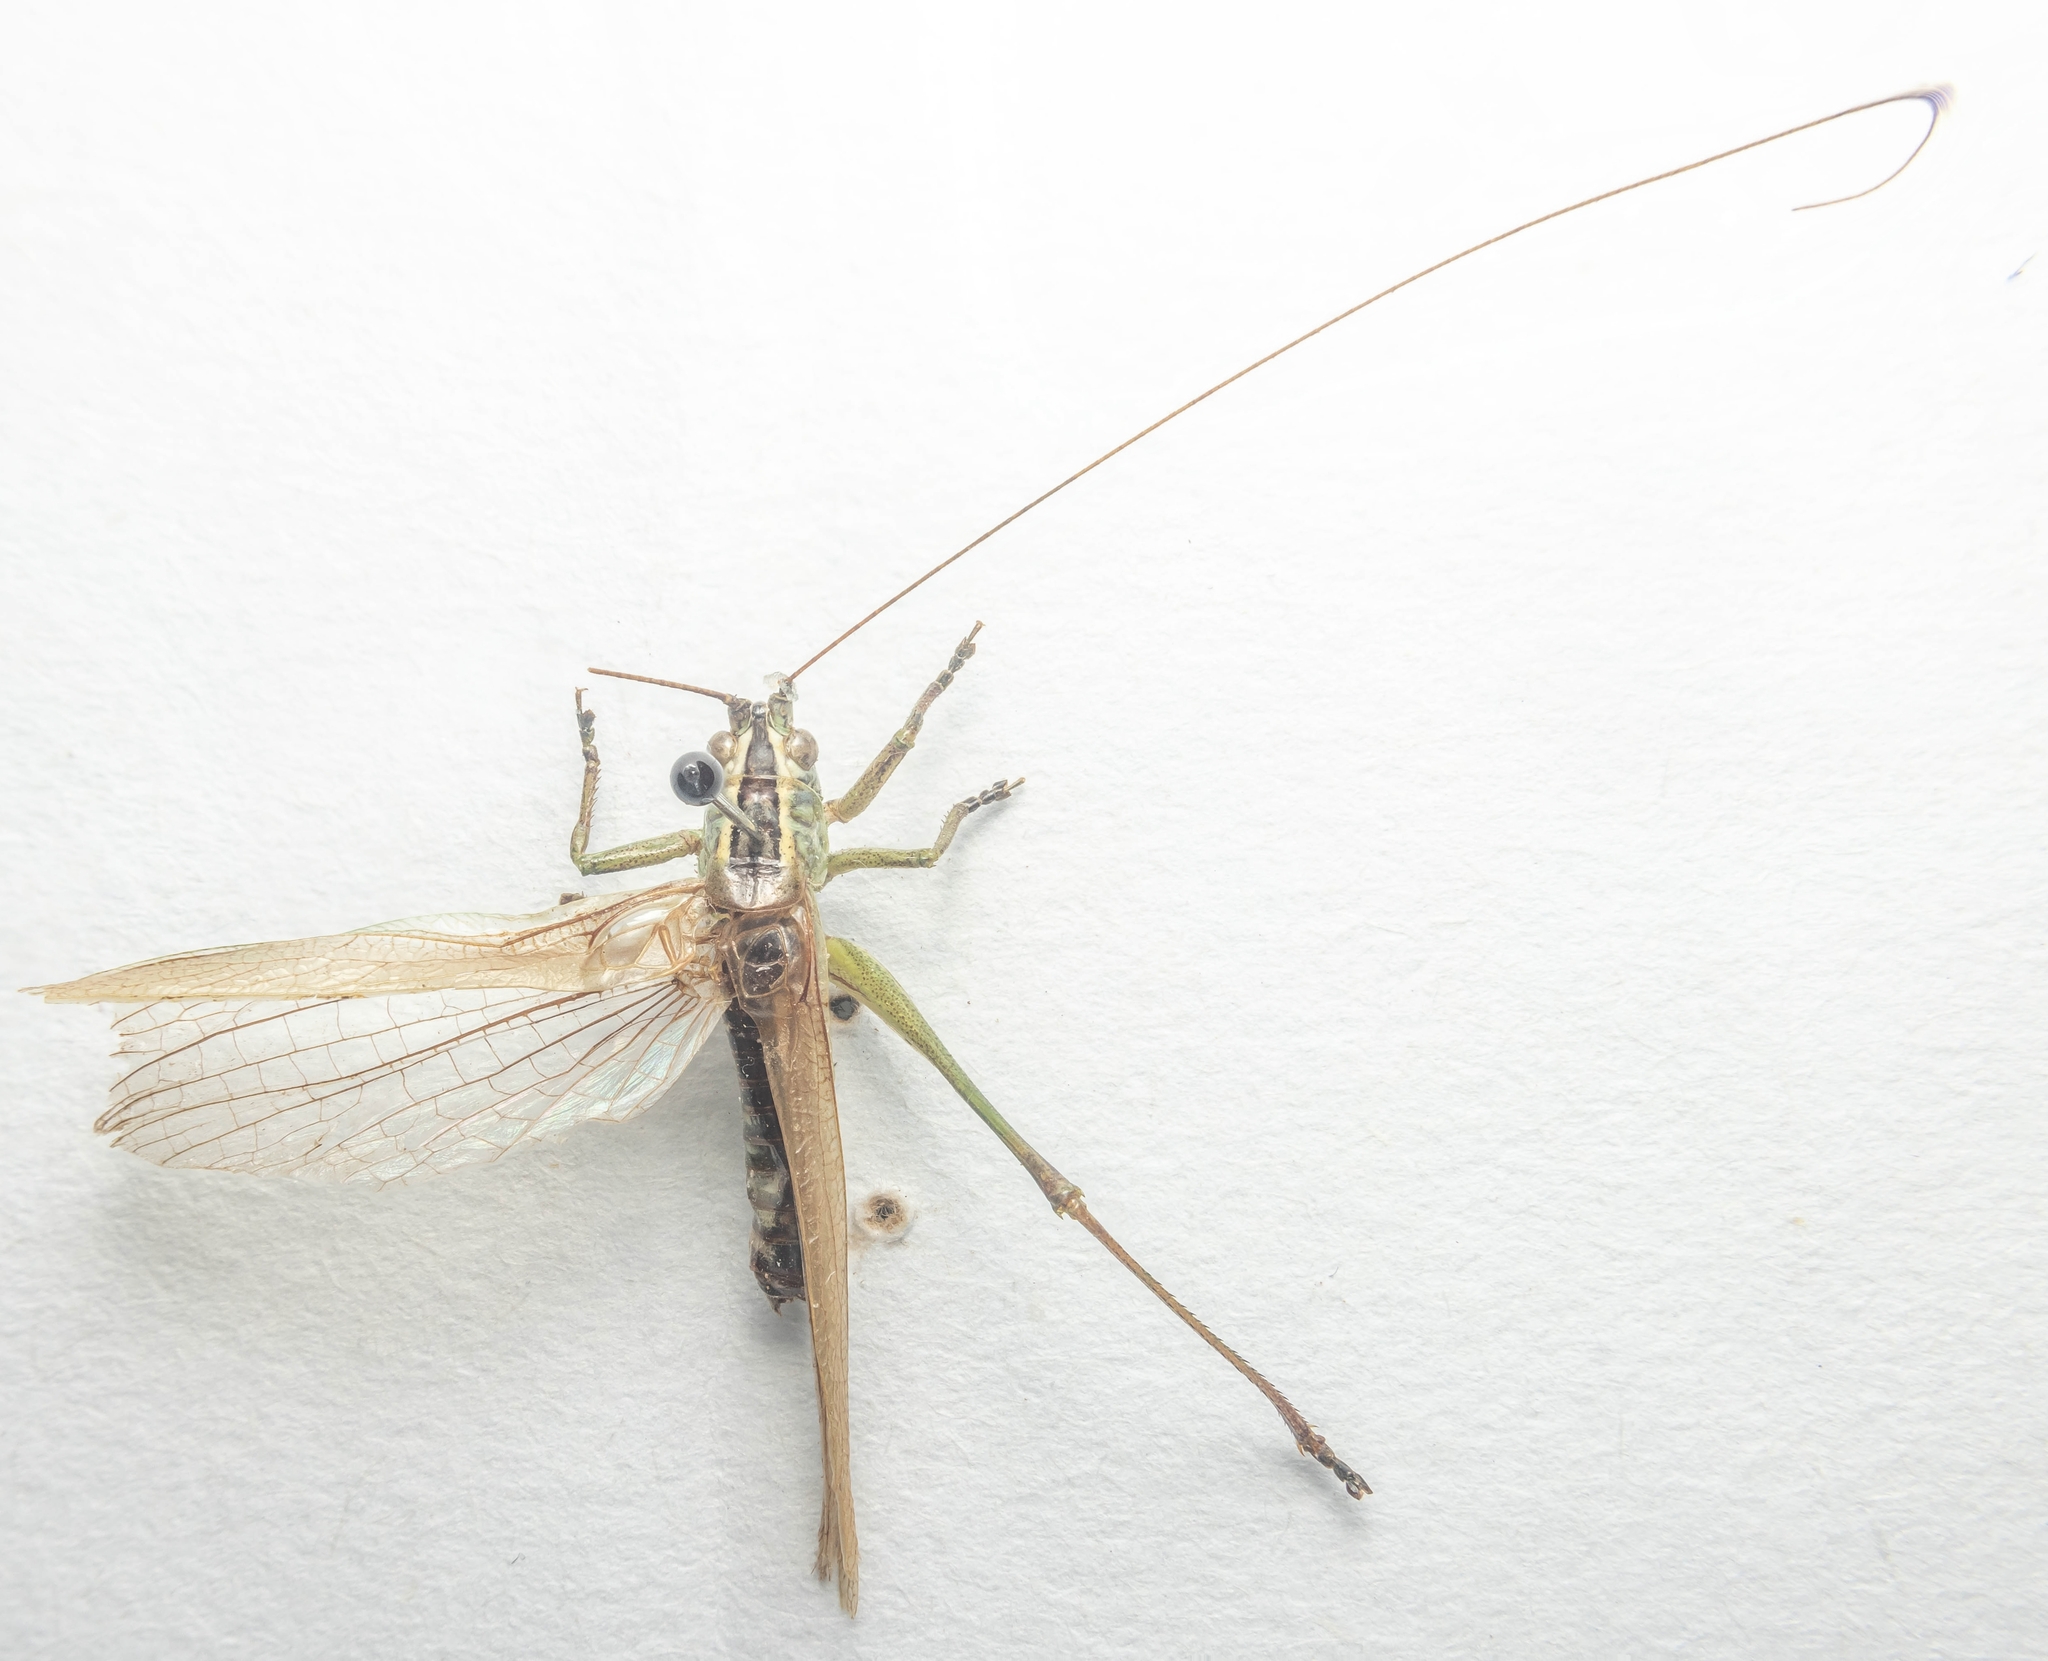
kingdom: Animalia
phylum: Arthropoda
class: Insecta
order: Orthoptera
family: Tettigoniidae
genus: Conocephalus
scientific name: Conocephalus fuscus
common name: Long-winged conehead
